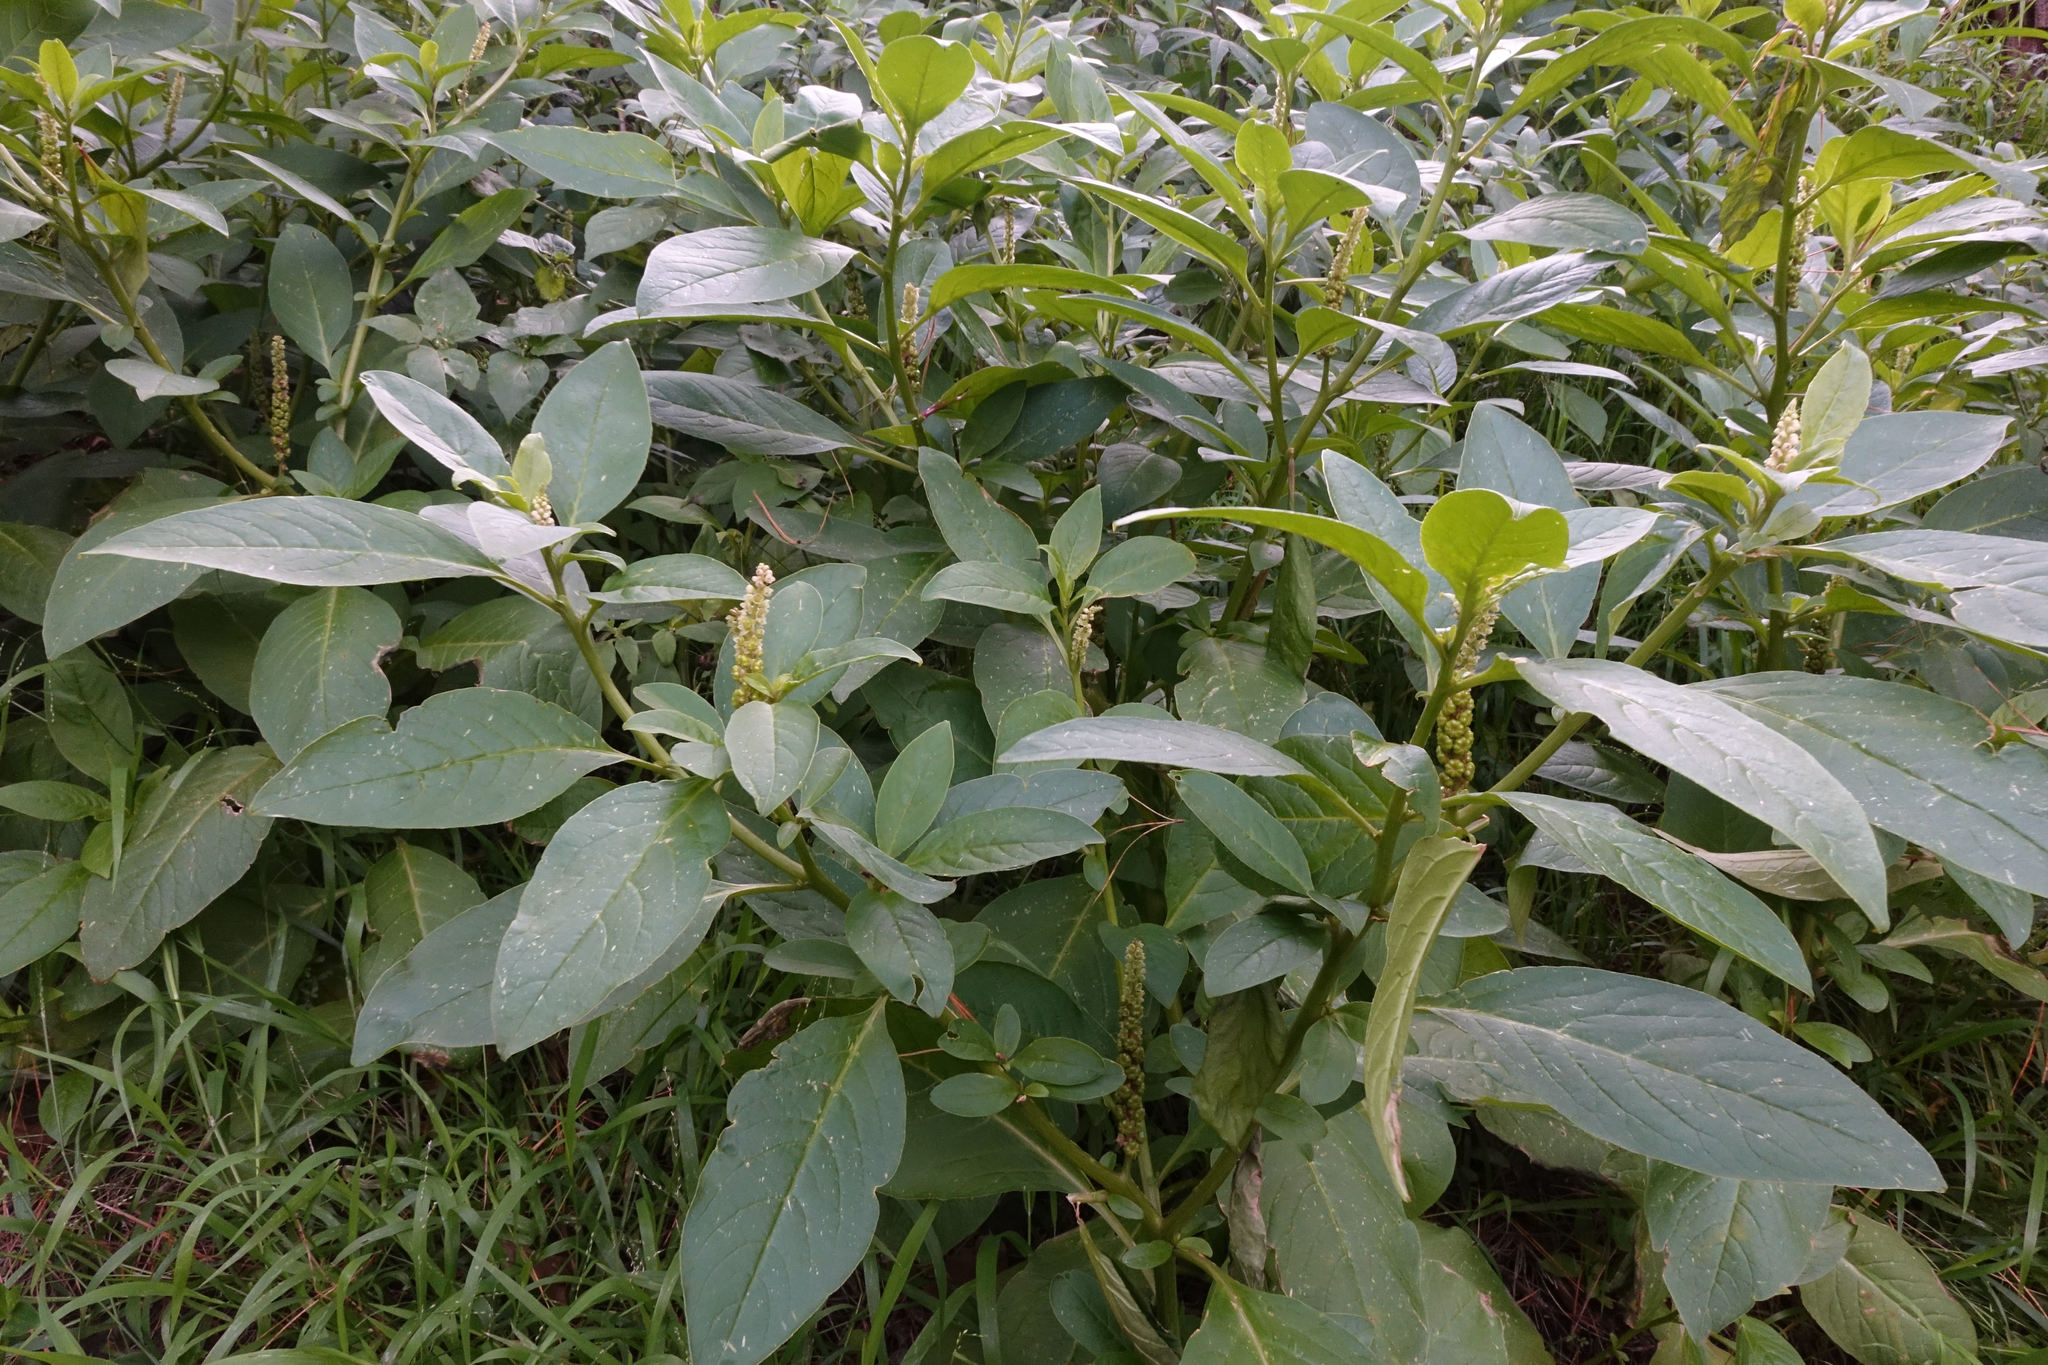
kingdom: Plantae
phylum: Tracheophyta
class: Magnoliopsida
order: Caryophyllales
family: Phytolaccaceae
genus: Phytolacca
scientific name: Phytolacca icosandra
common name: Button pokeweed
